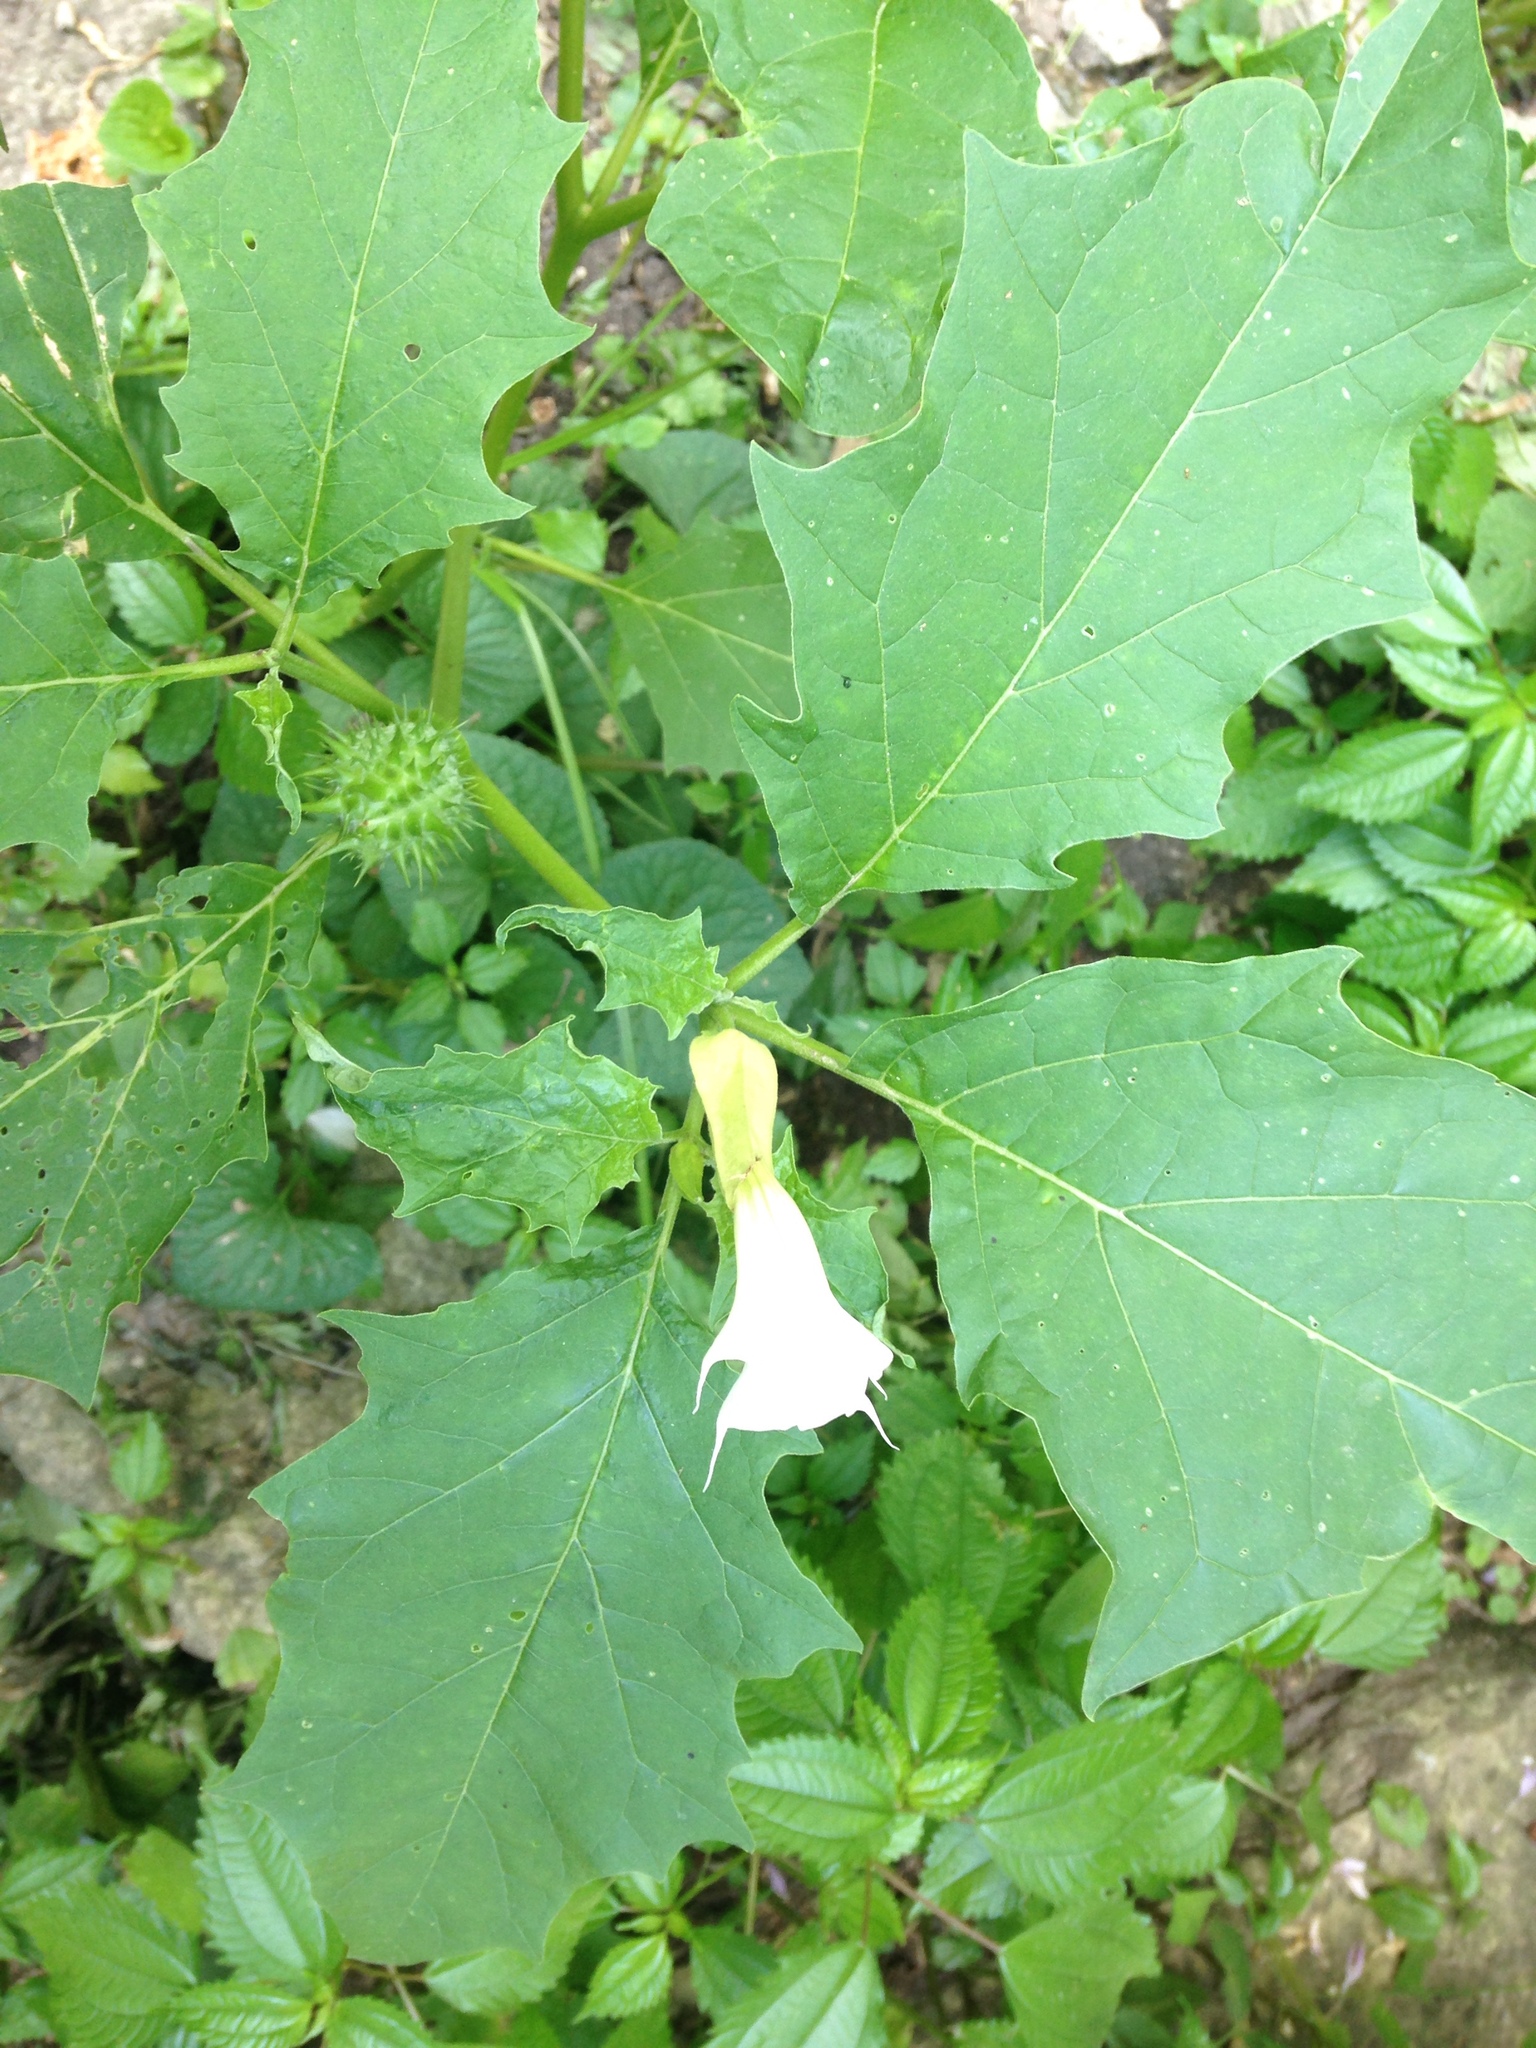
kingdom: Plantae
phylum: Tracheophyta
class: Magnoliopsida
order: Solanales
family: Solanaceae
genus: Datura
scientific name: Datura stramonium
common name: Thorn-apple
